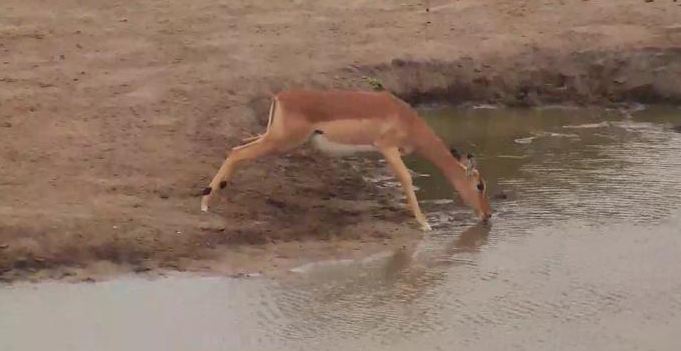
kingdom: Animalia
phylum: Chordata
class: Mammalia
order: Artiodactyla
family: Bovidae
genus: Aepyceros
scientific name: Aepyceros melampus
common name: Impala
